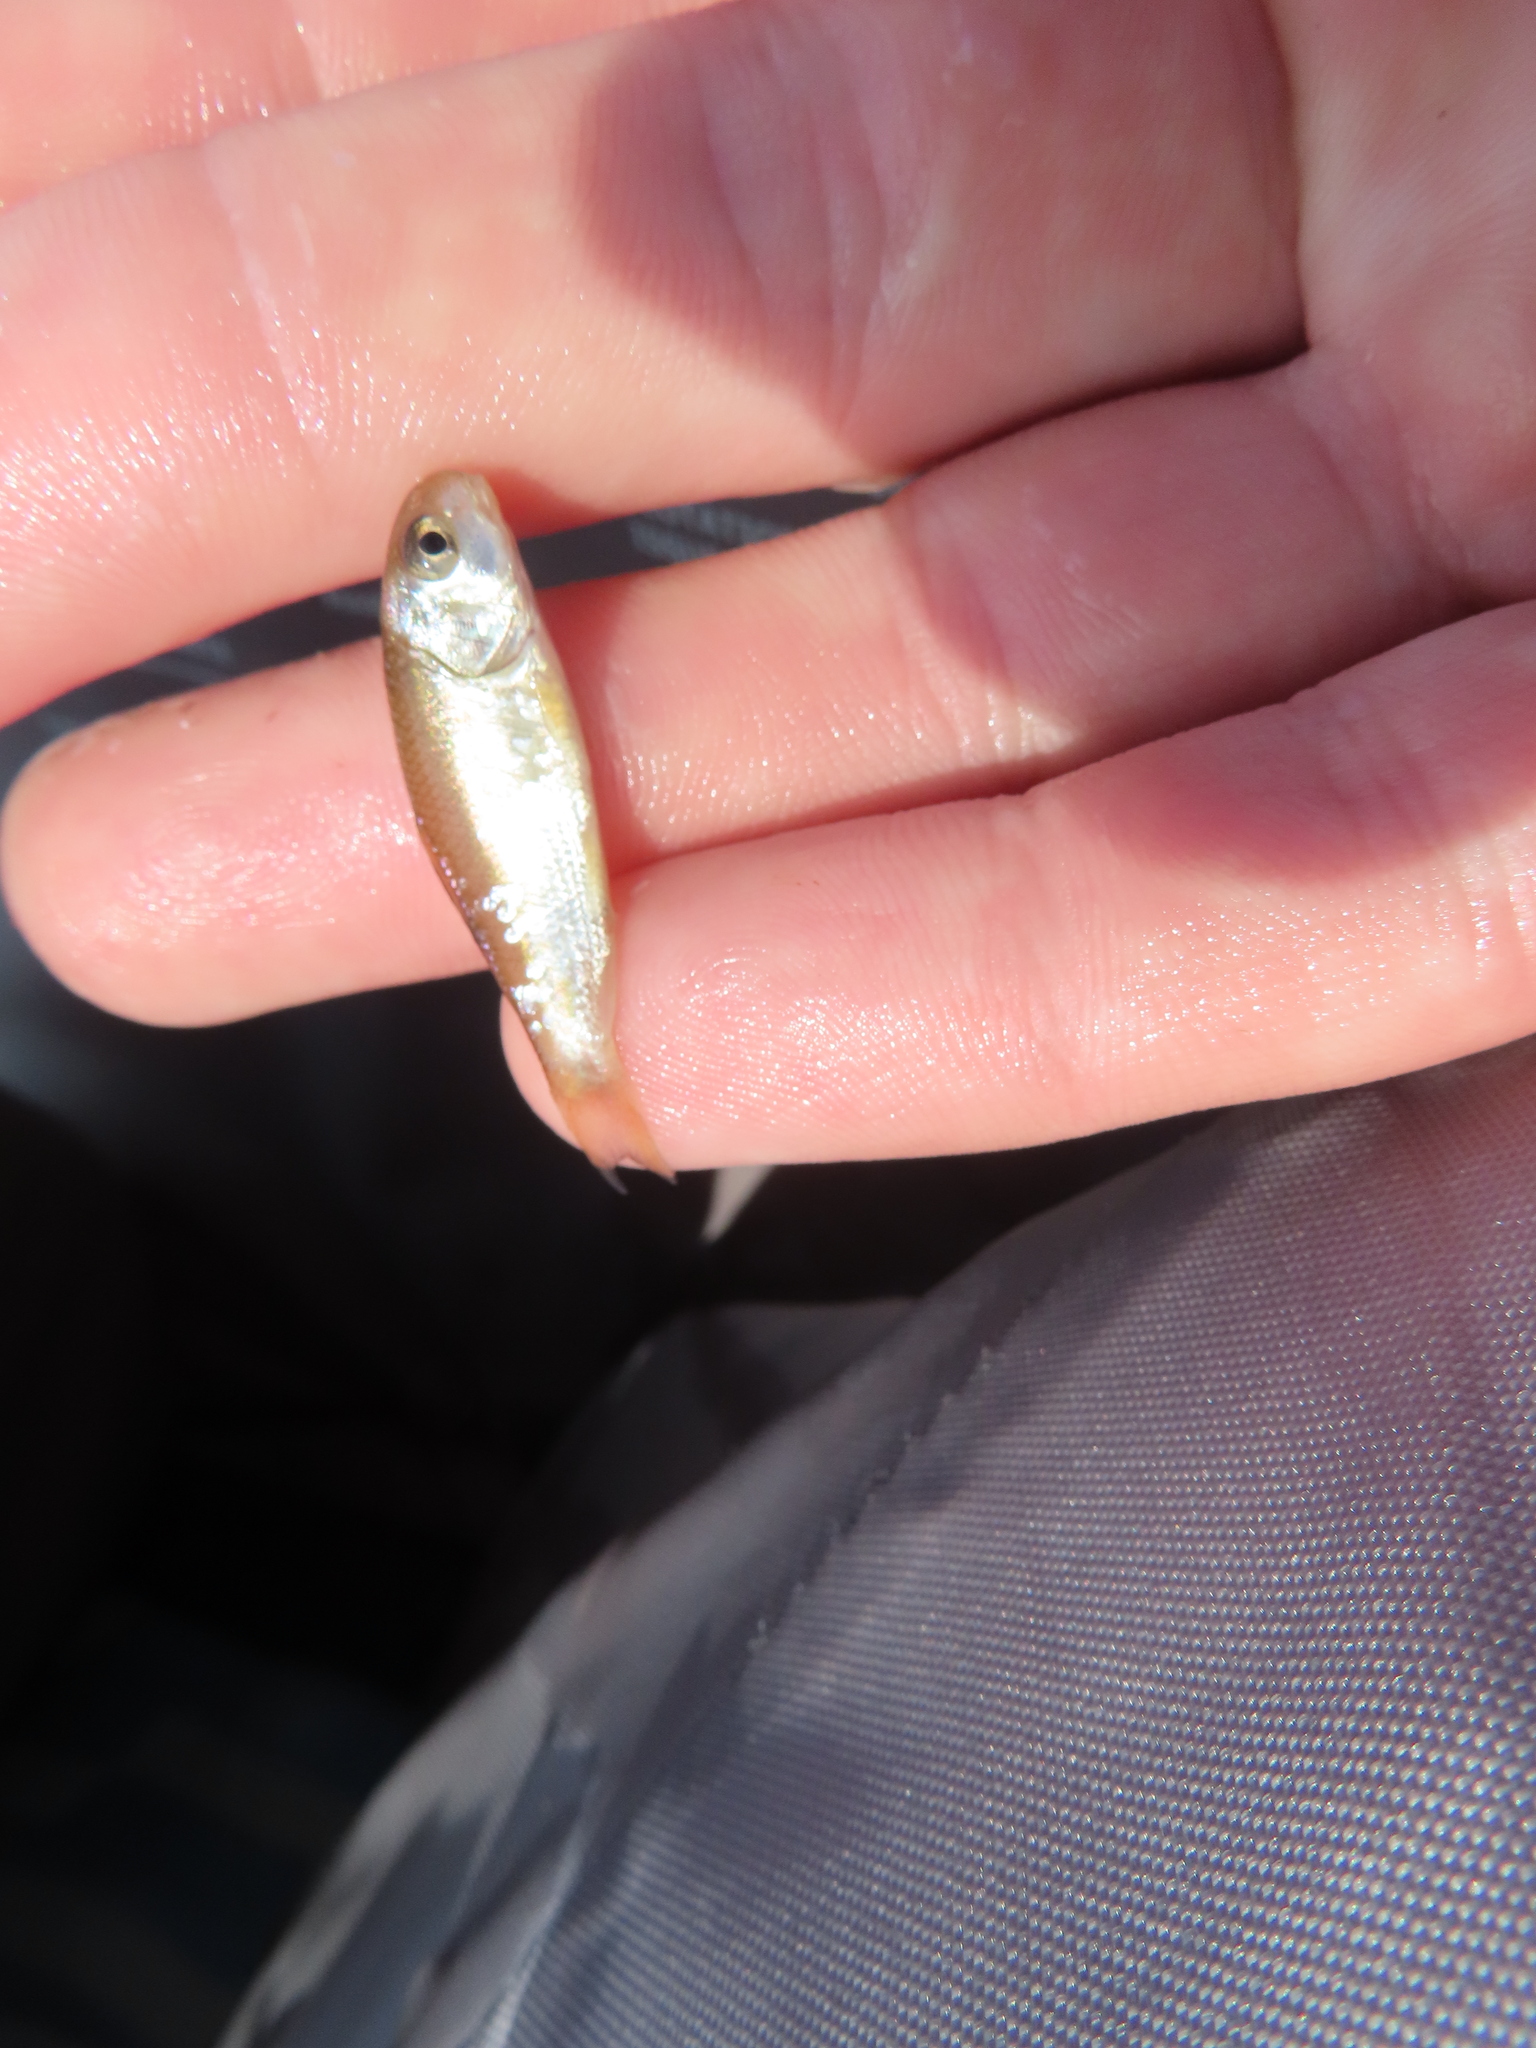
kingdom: Animalia
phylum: Chordata
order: Cypriniformes
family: Catostomidae
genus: Carpiodes
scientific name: Carpiodes
